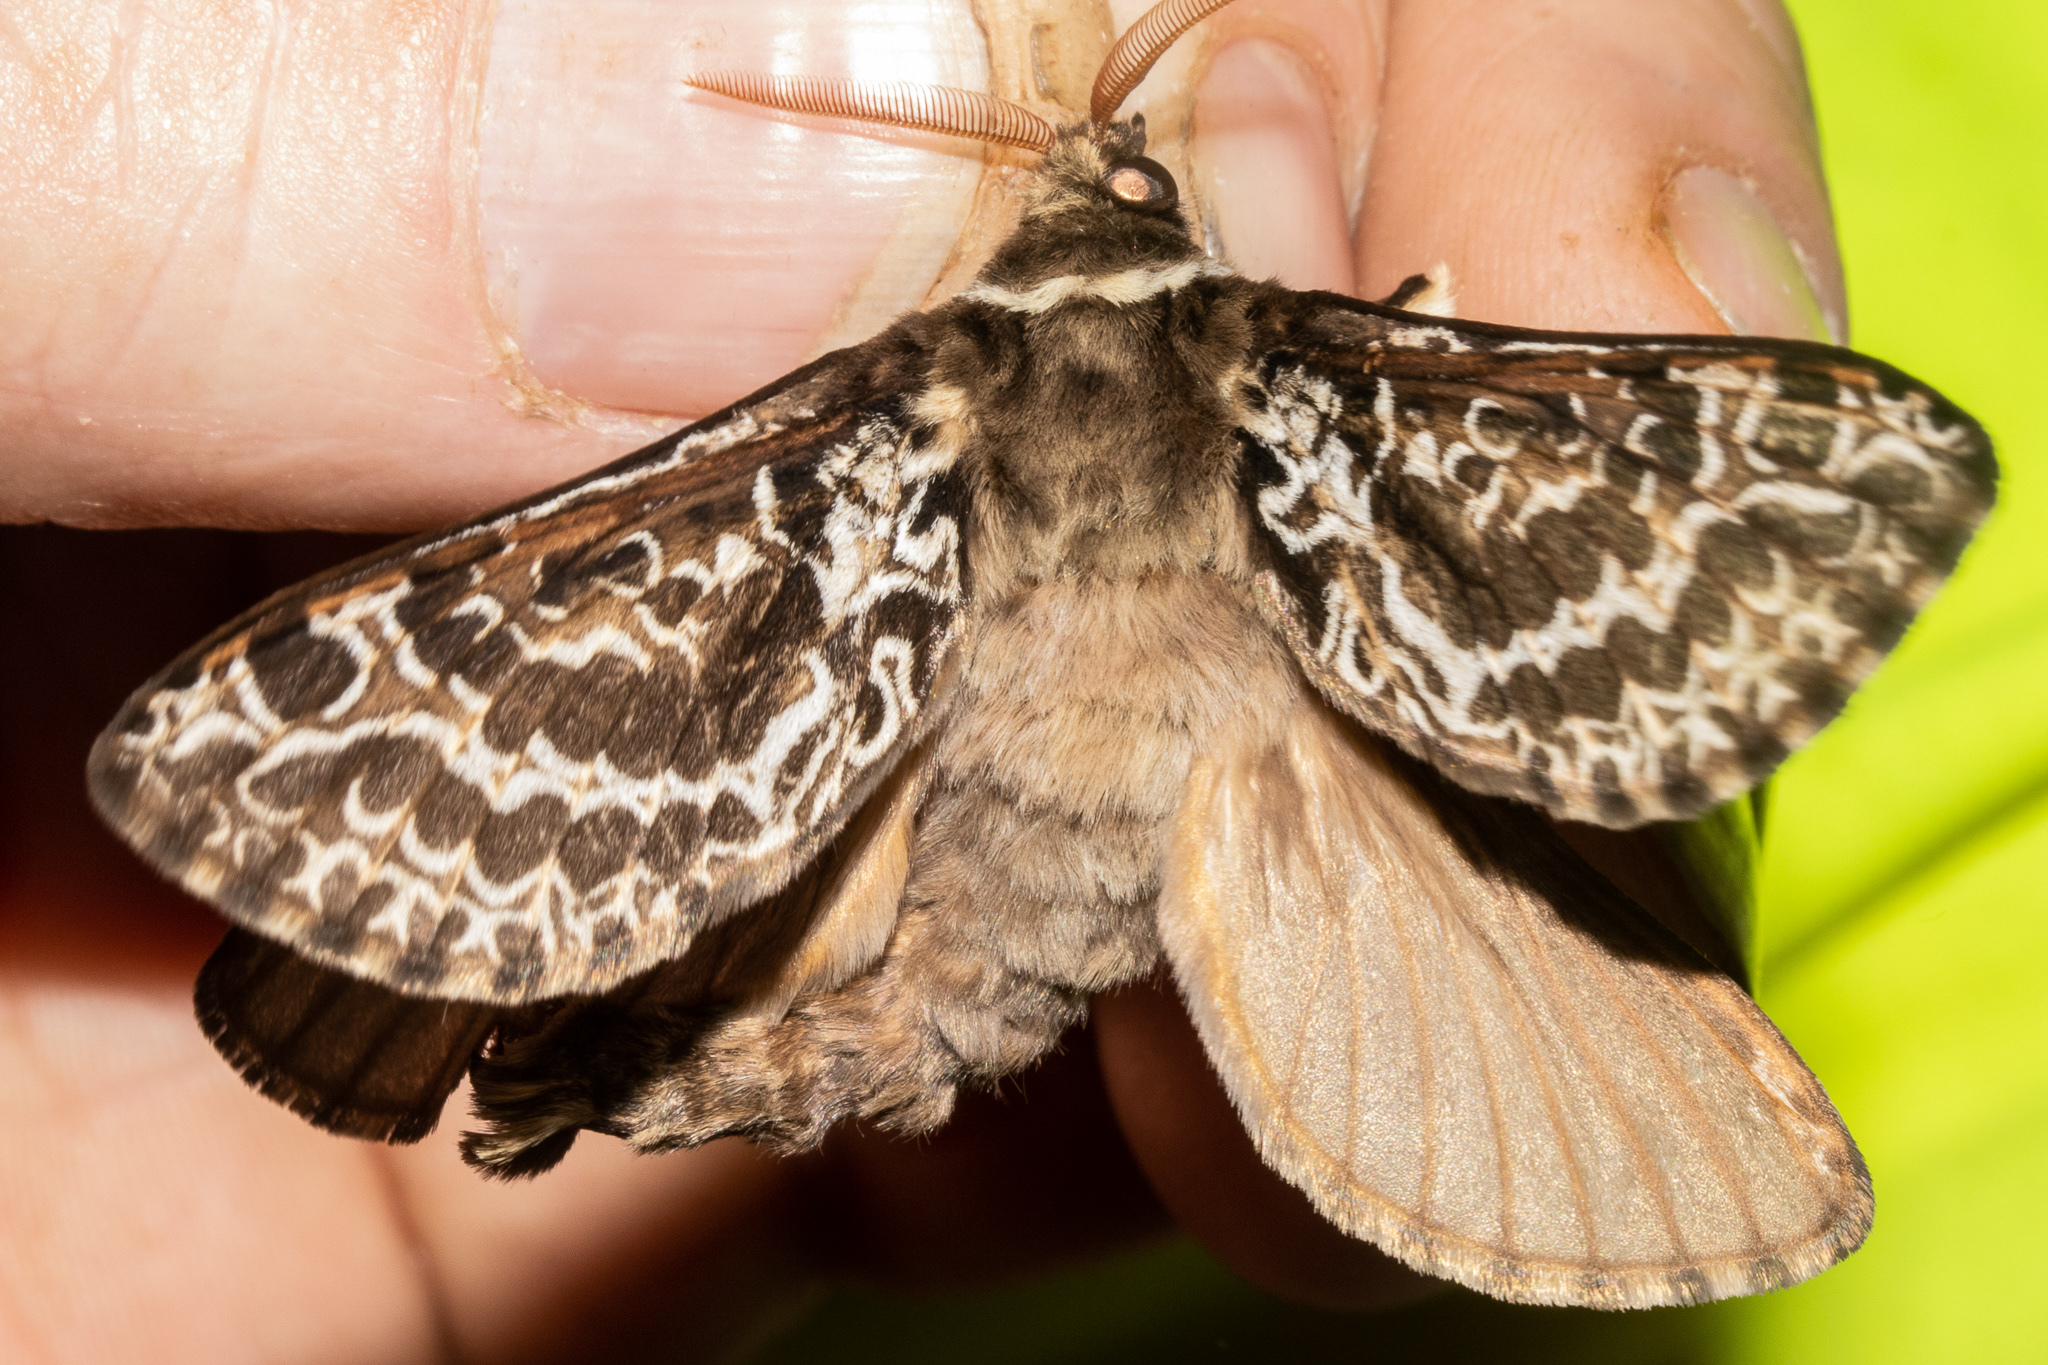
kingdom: Animalia
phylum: Arthropoda
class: Insecta
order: Lepidoptera
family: Hepialidae
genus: Aoraia
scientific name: Aoraia rufivena
